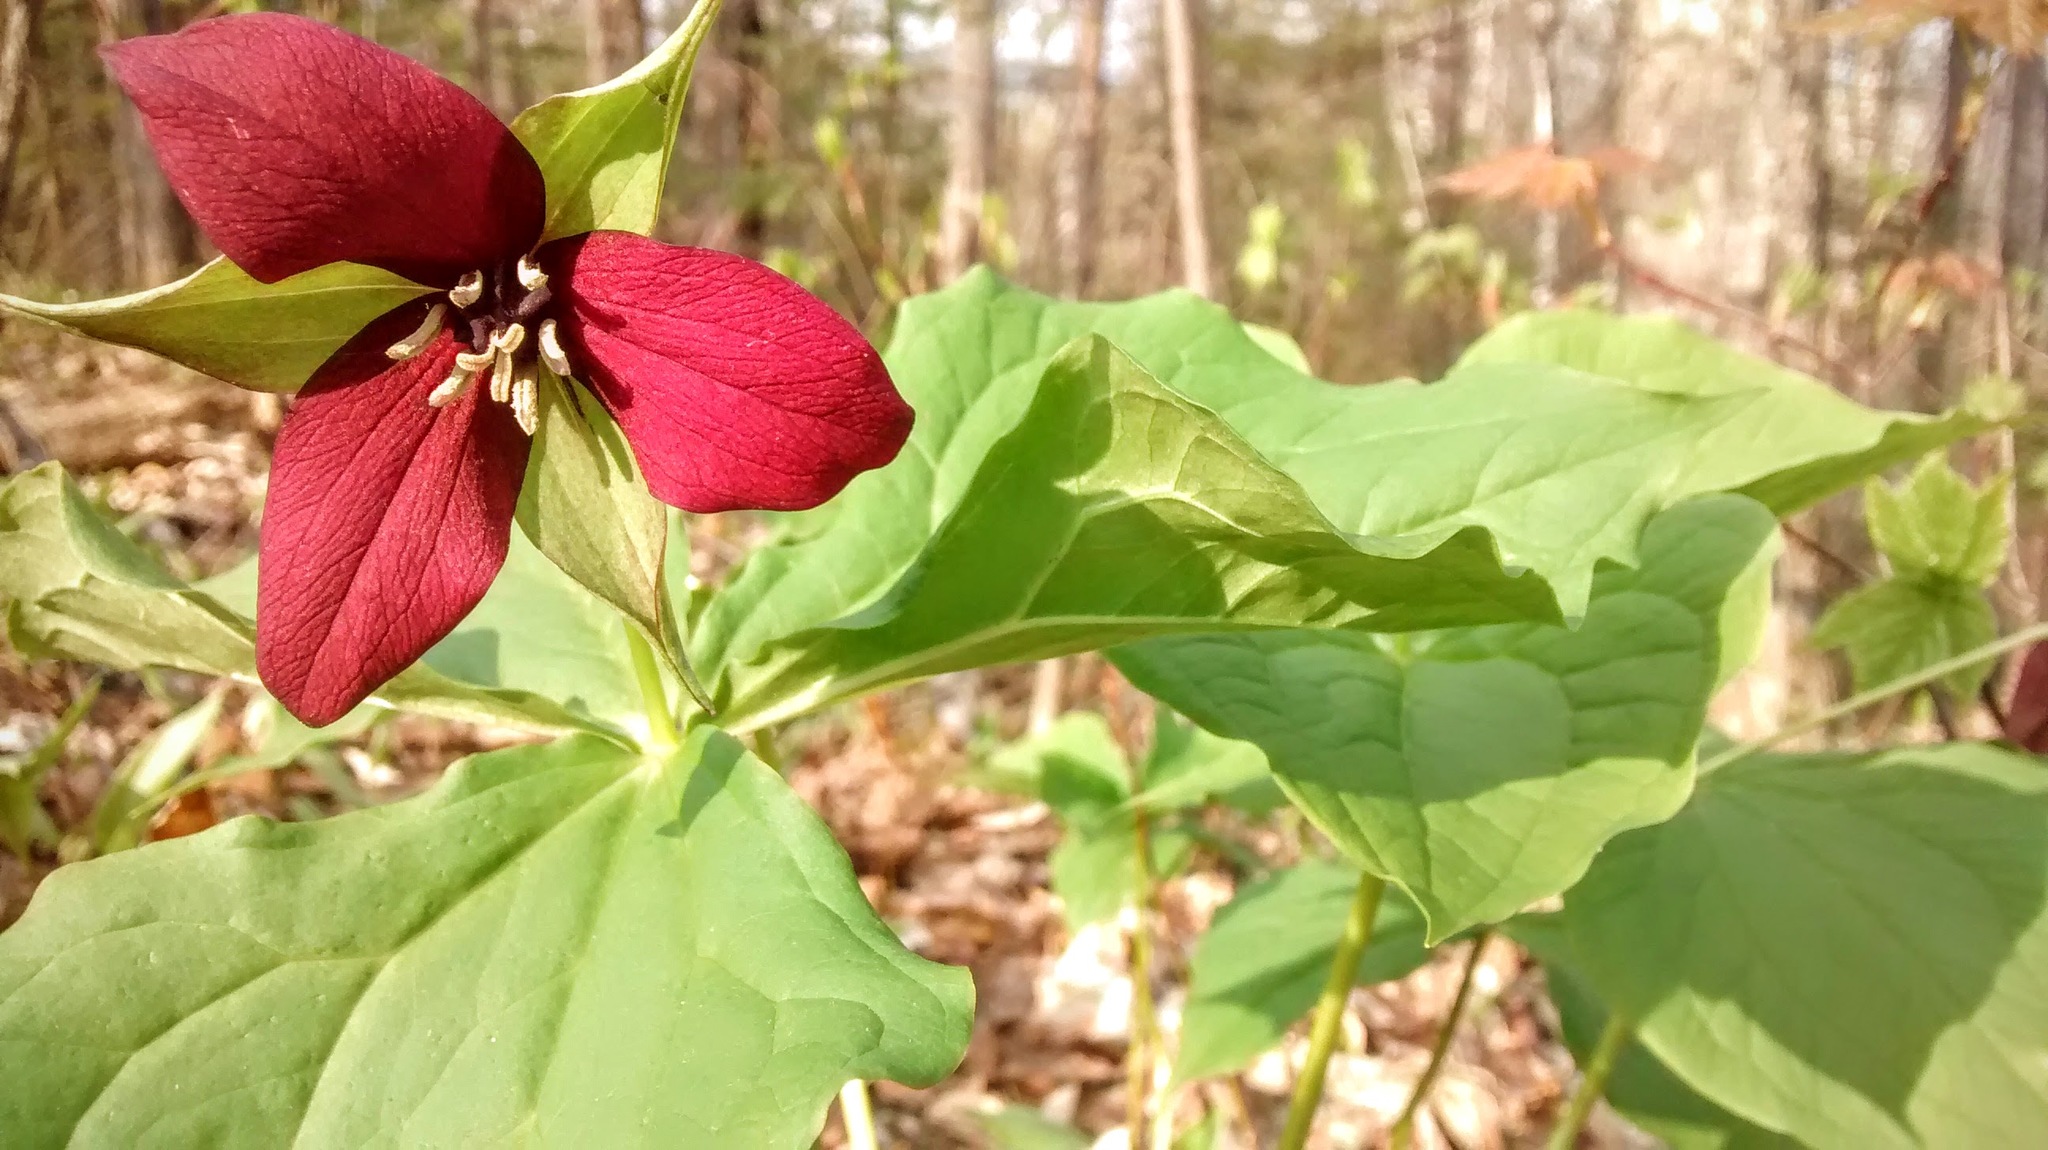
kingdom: Plantae
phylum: Tracheophyta
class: Liliopsida
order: Liliales
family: Melanthiaceae
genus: Trillium
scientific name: Trillium erectum
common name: Purple trillium
